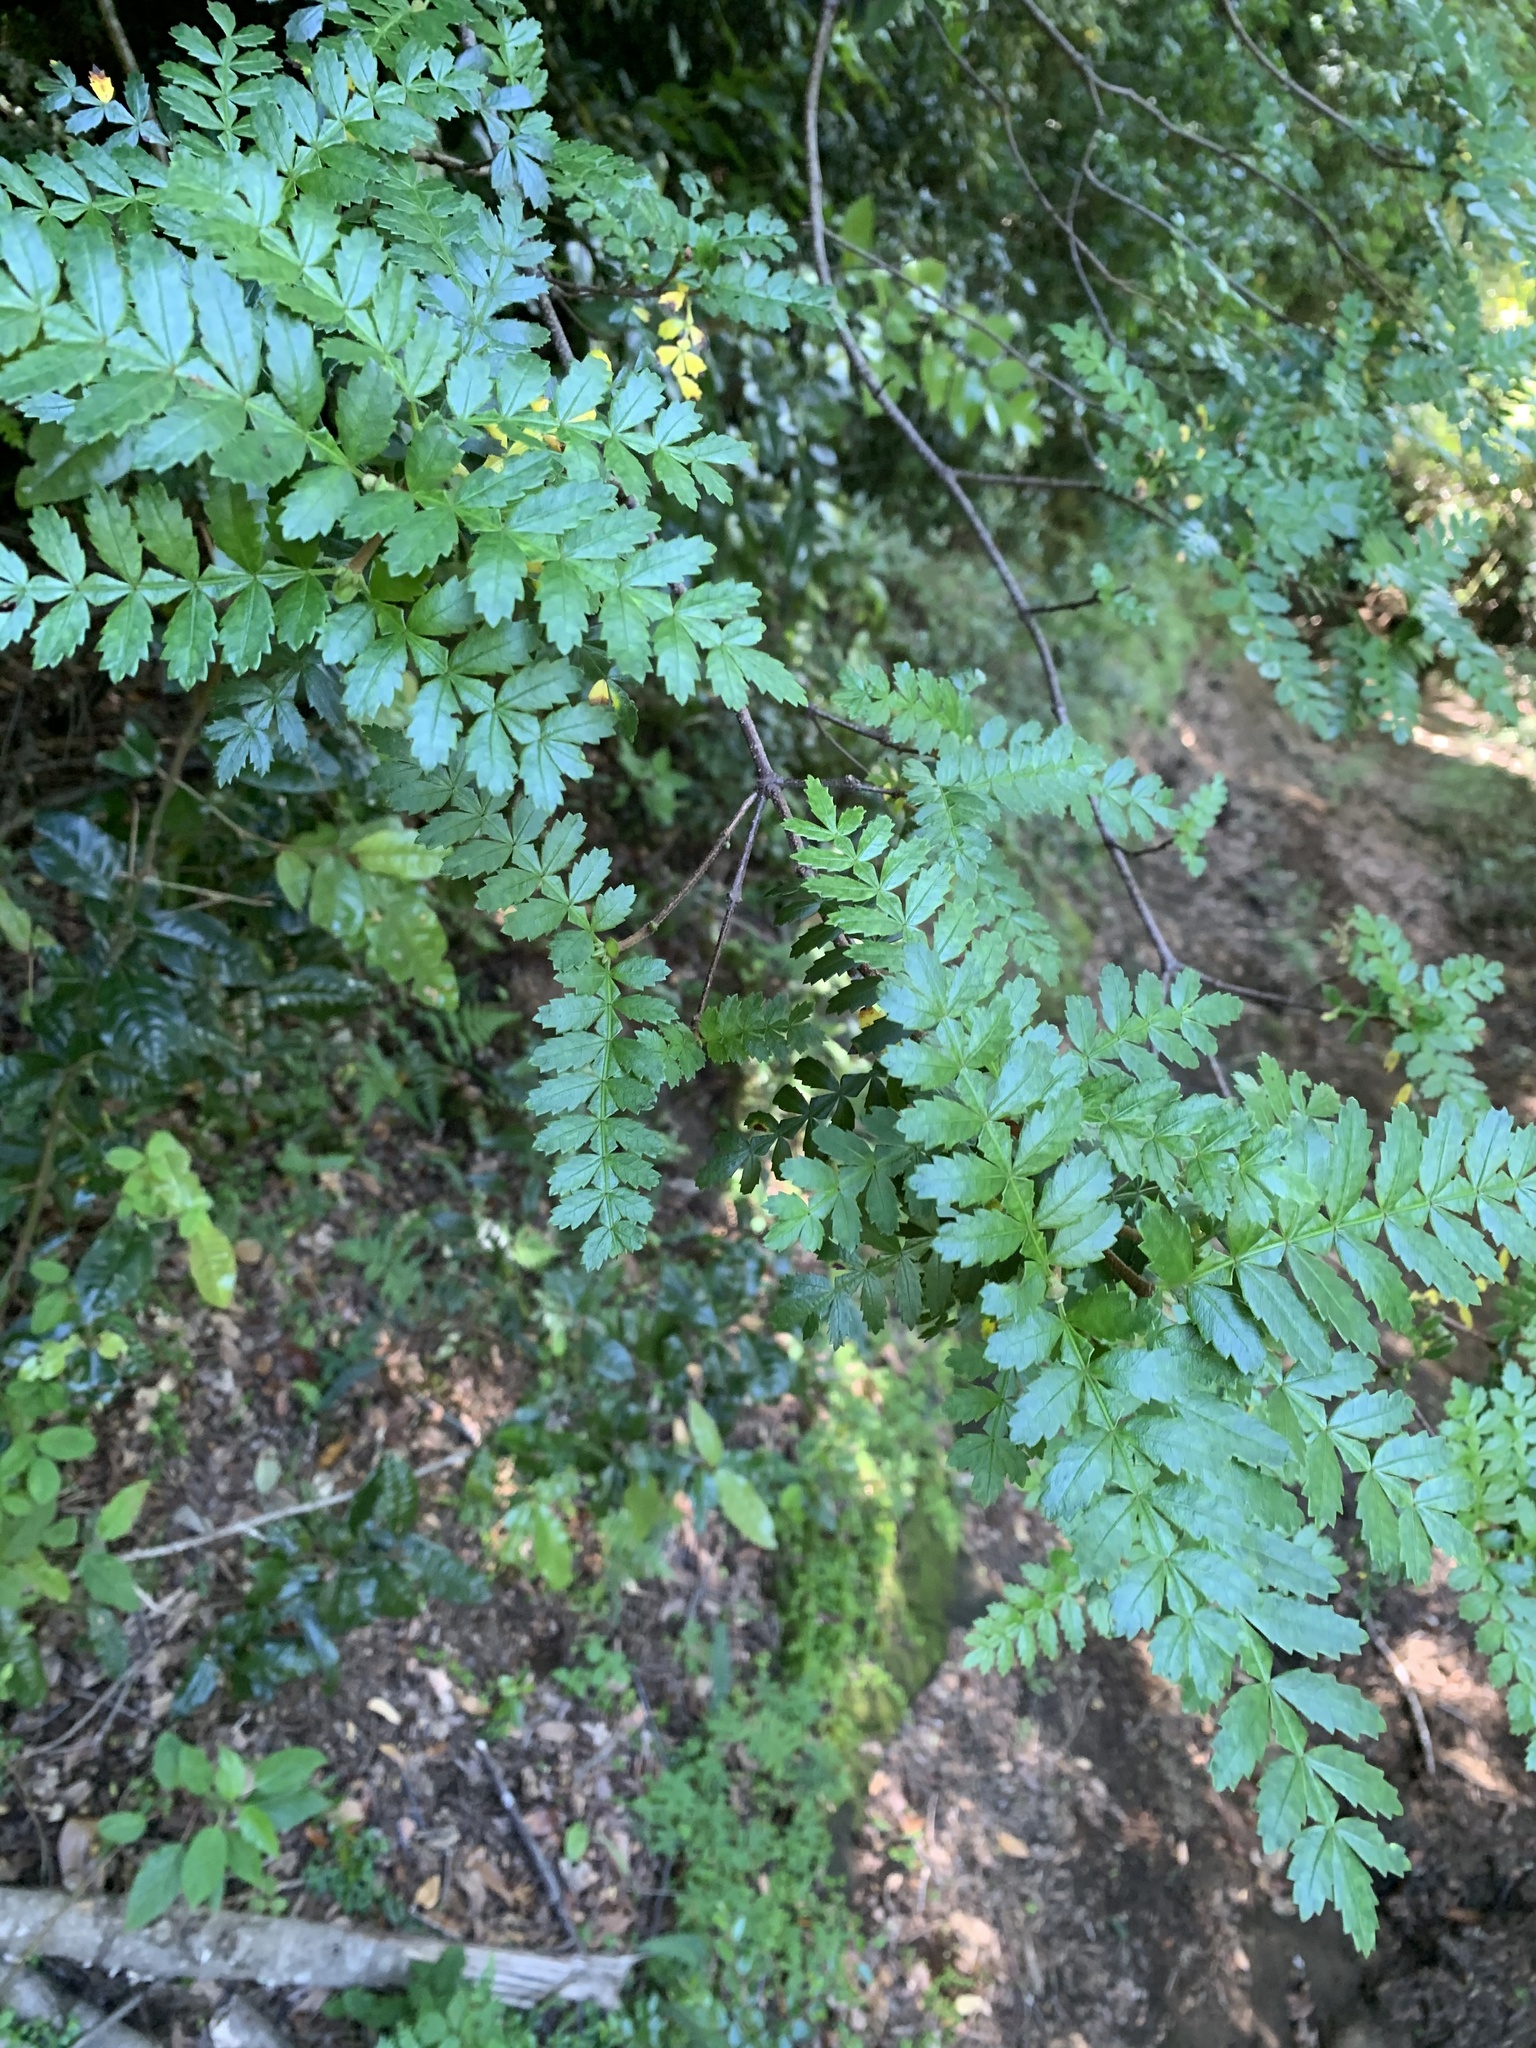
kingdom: Plantae
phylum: Tracheophyta
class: Magnoliopsida
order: Oxalidales
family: Cunoniaceae
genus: Weinmannia
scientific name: Weinmannia trichosperma
